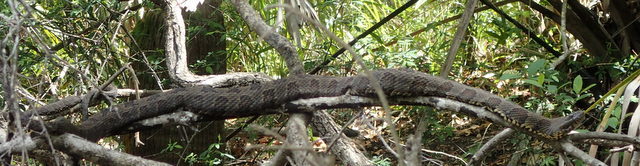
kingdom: Animalia
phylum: Chordata
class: Squamata
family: Colubridae
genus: Nerodia
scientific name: Nerodia taxispilota
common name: Brown water snake
